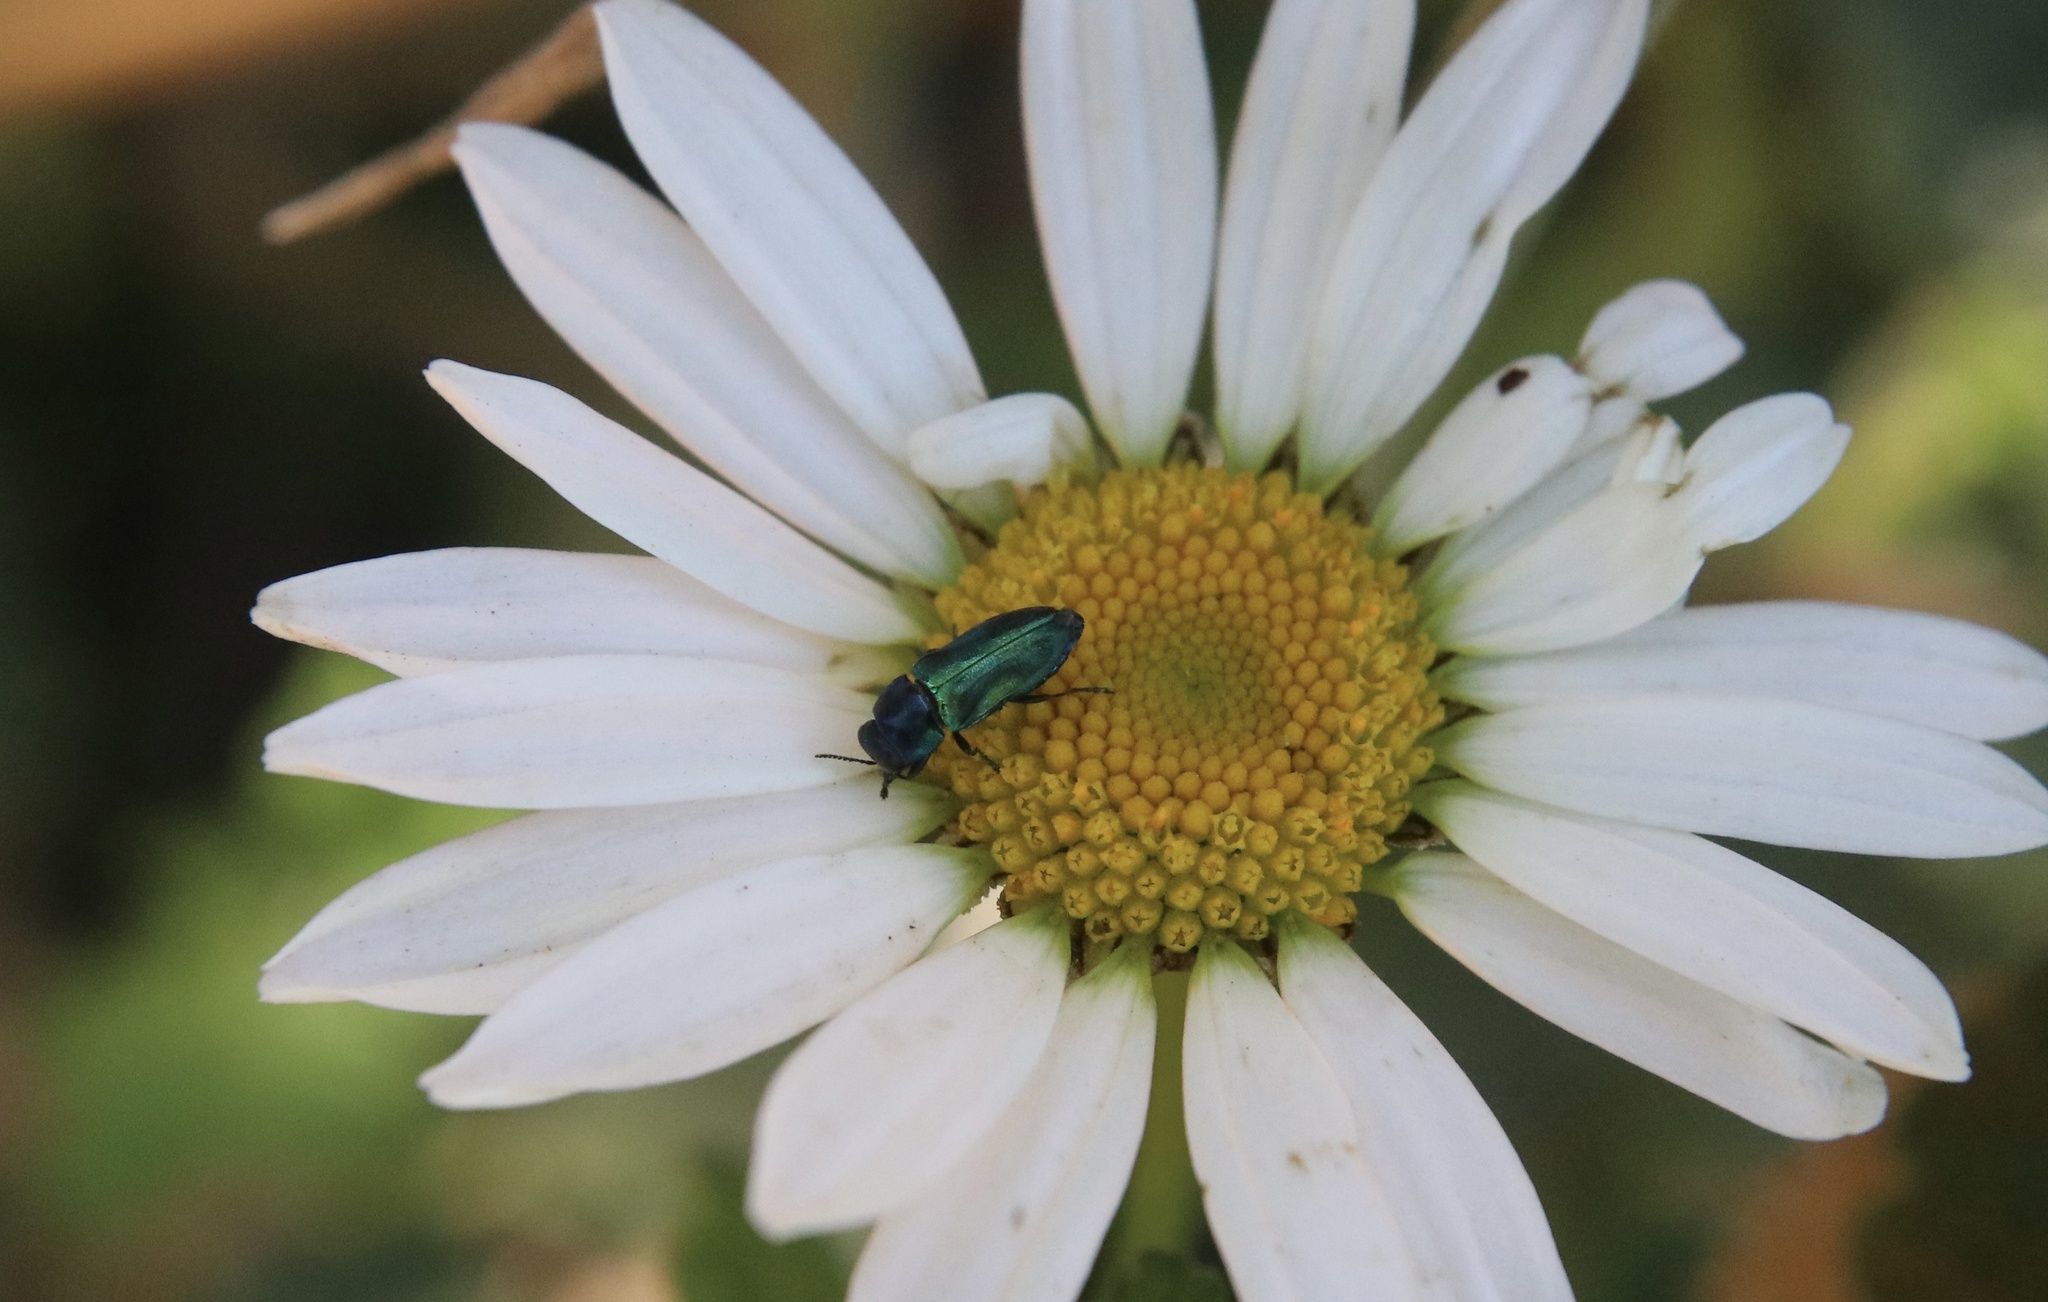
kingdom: Animalia
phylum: Arthropoda
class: Insecta
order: Coleoptera
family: Buprestidae
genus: Bilyaxia
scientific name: Bilyaxia concinna
